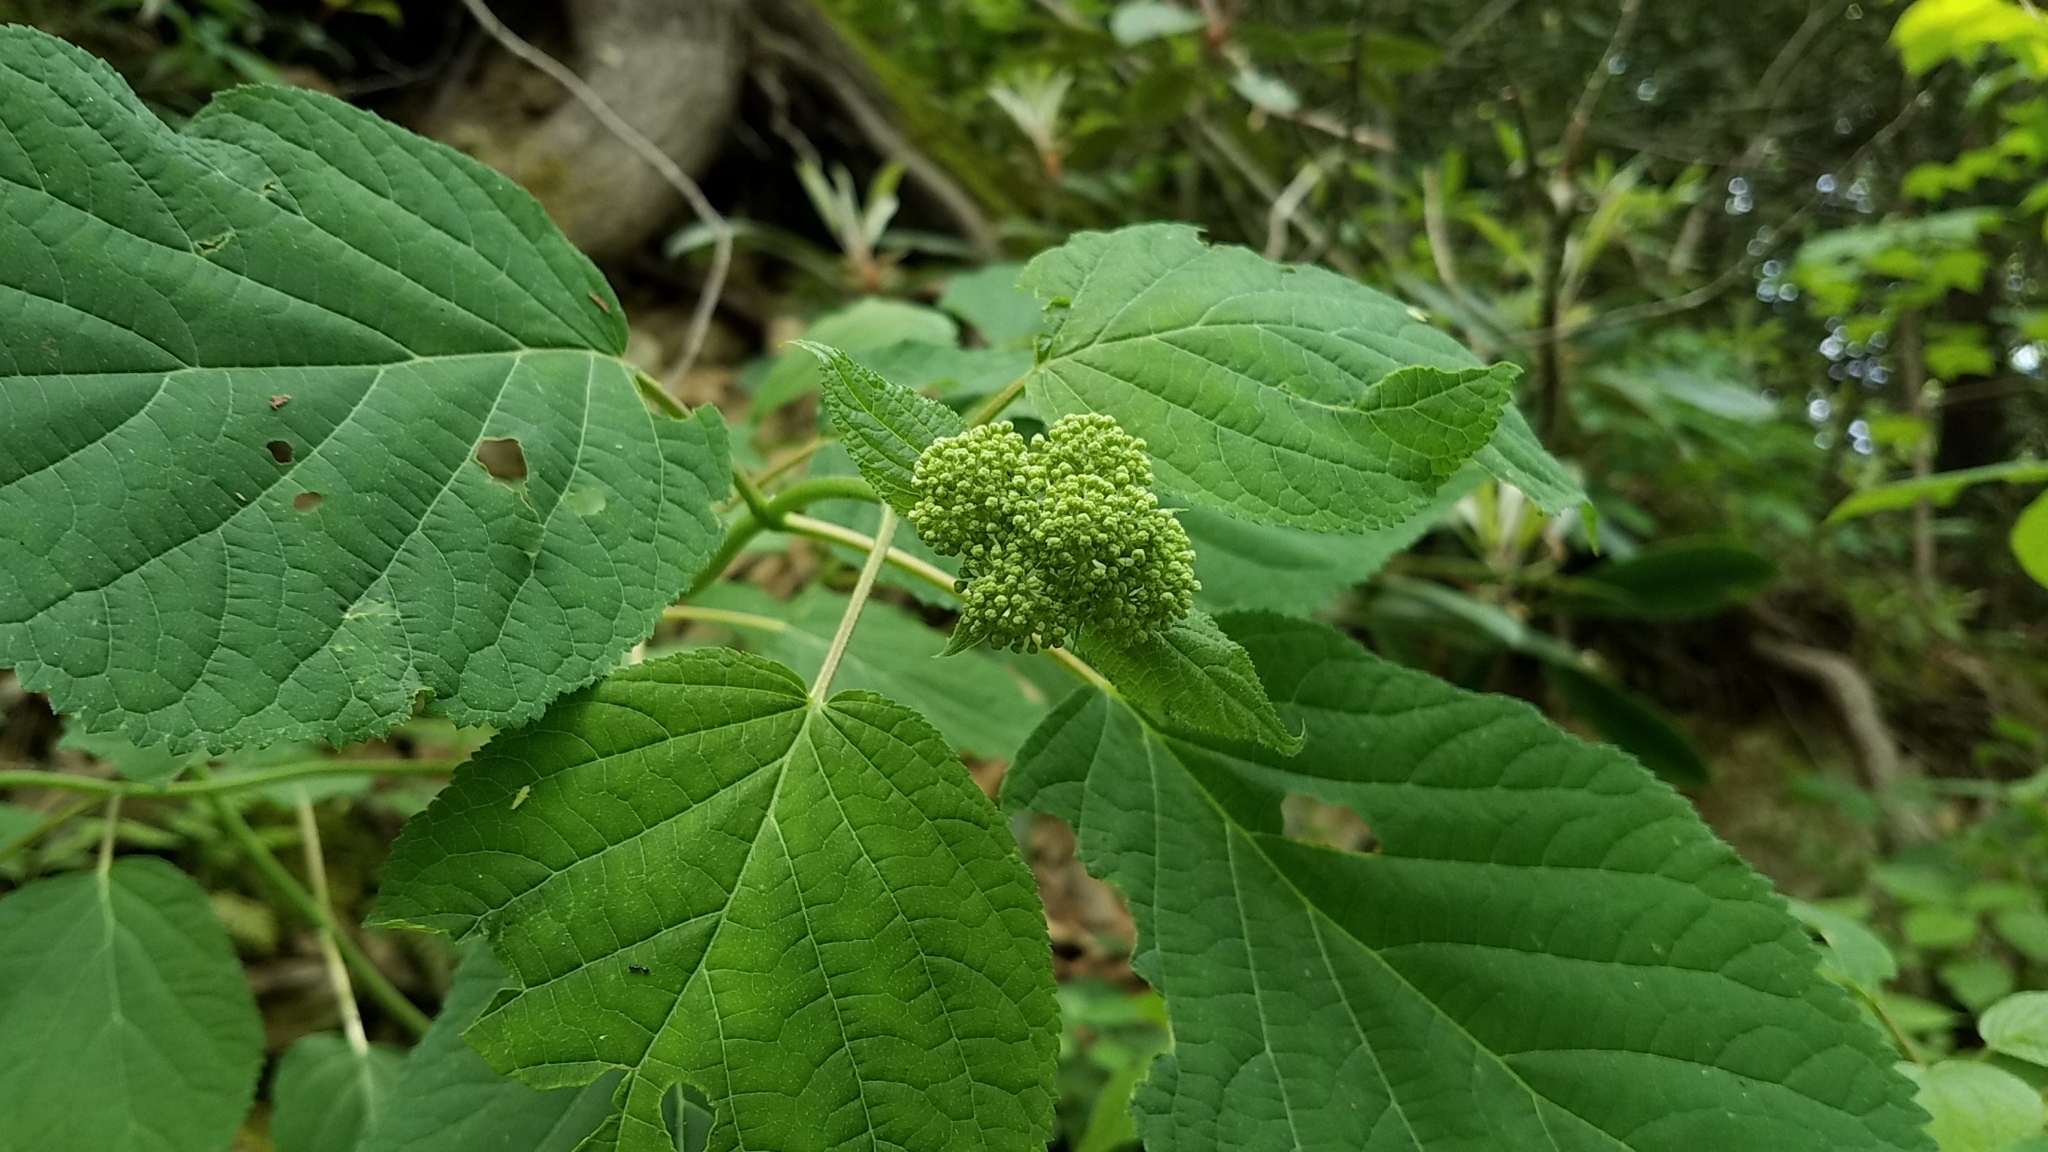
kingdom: Plantae
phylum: Tracheophyta
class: Magnoliopsida
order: Cornales
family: Hydrangeaceae
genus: Hydrangea
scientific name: Hydrangea arborescens
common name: Sevenbark
